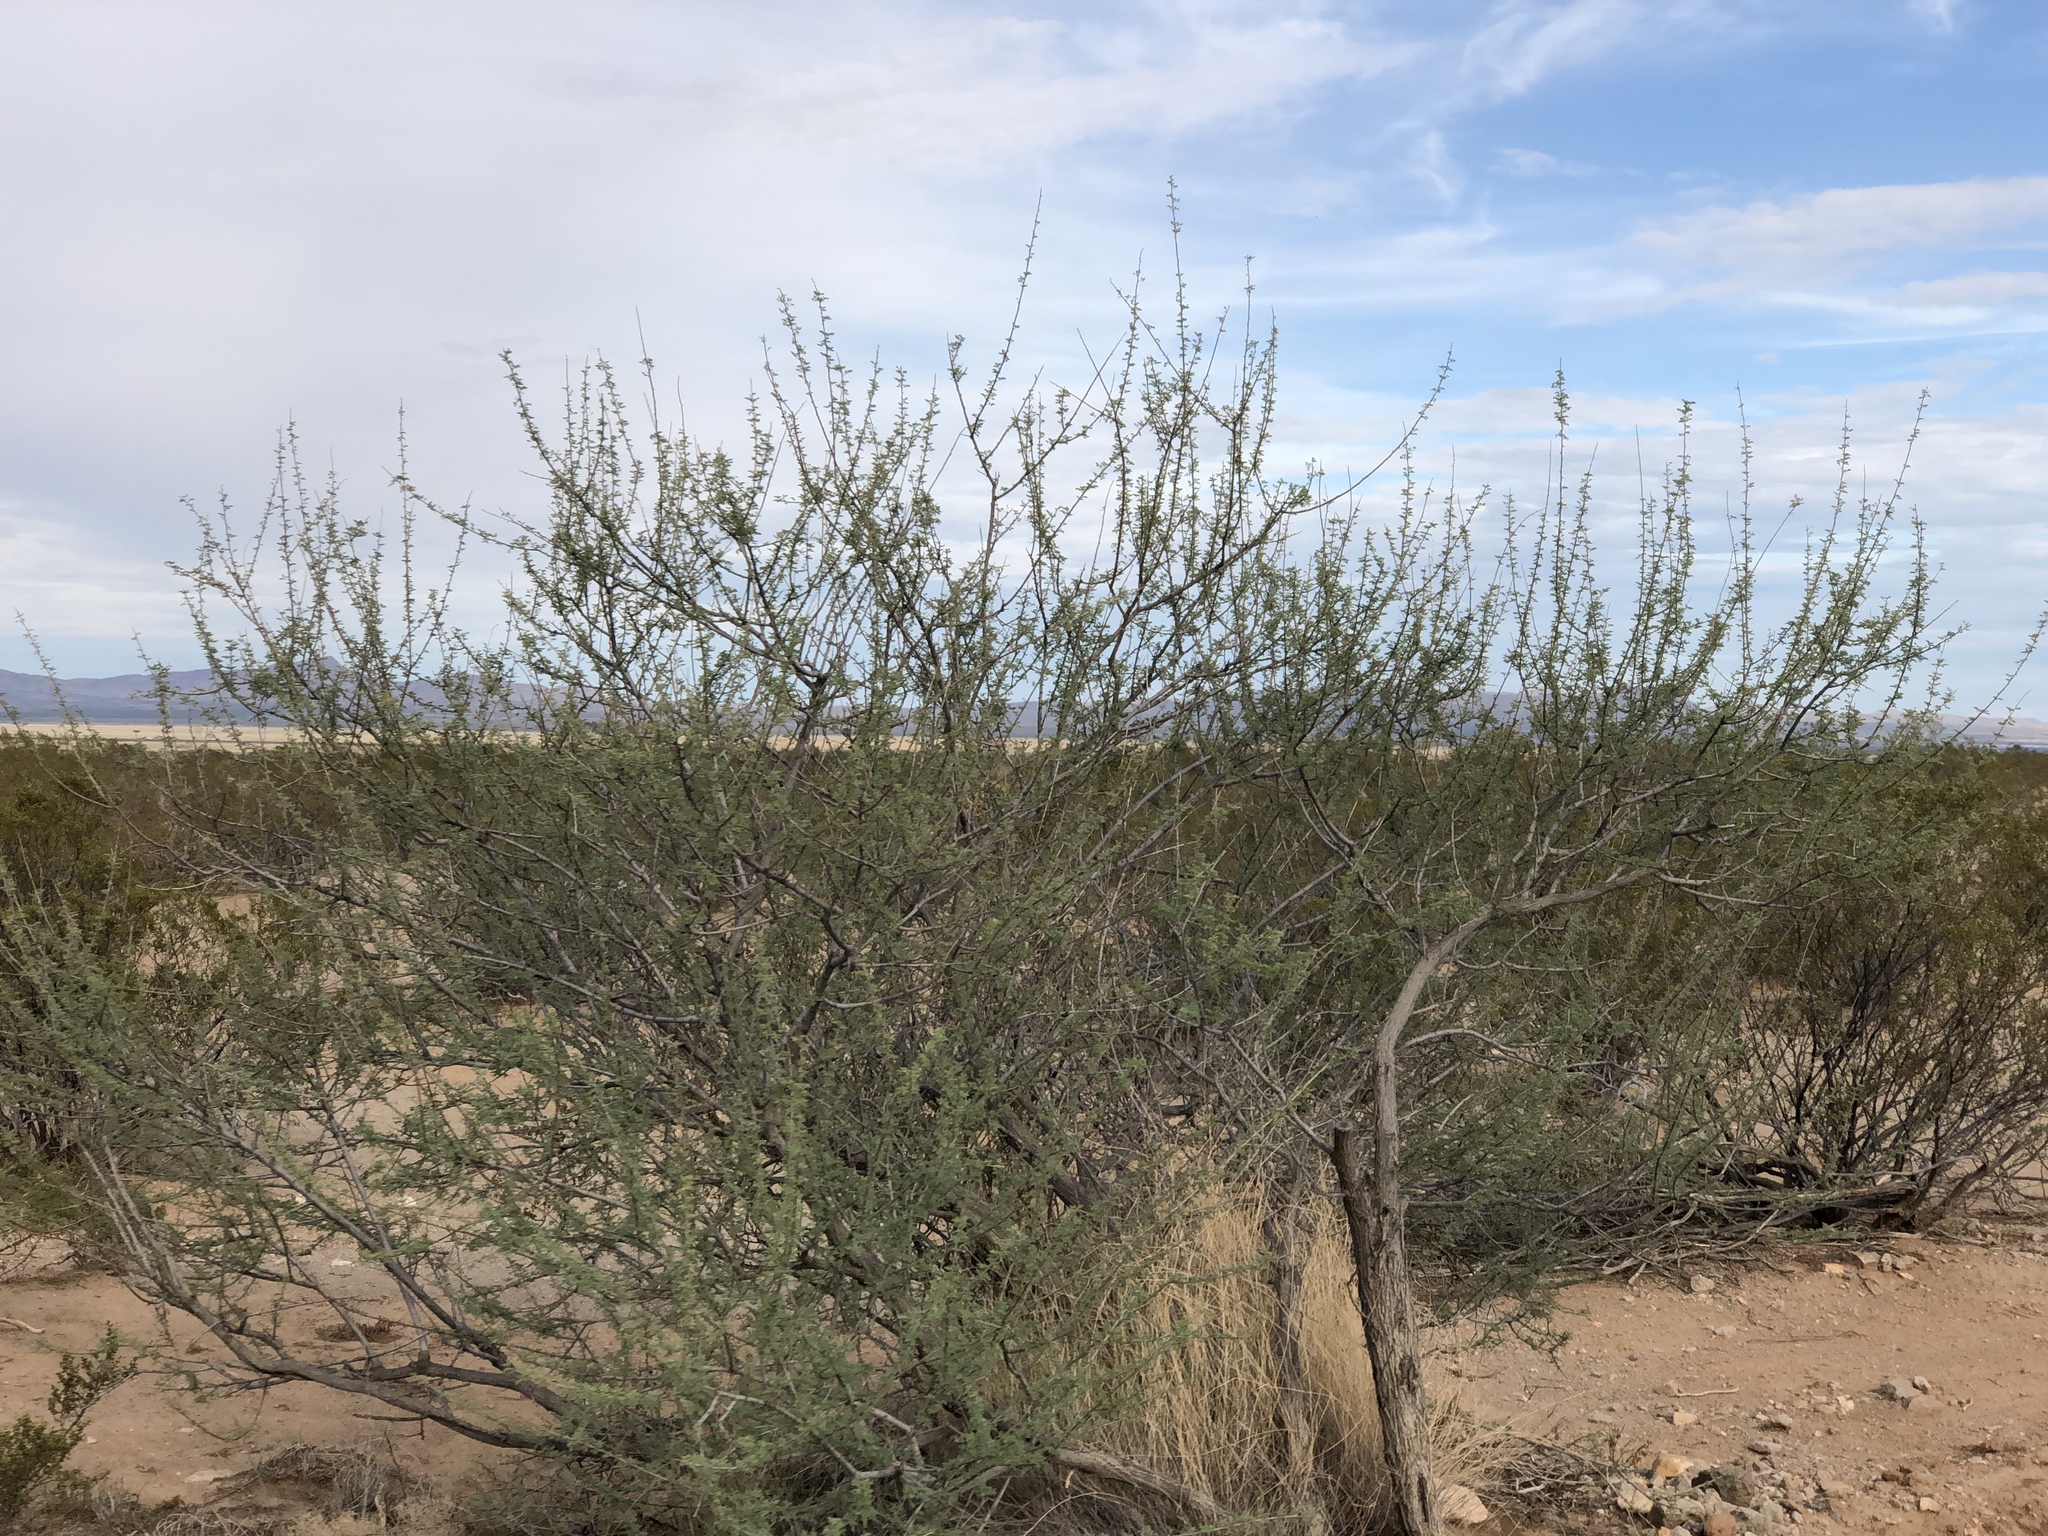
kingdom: Plantae
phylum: Tracheophyta
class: Magnoliopsida
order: Fabales
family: Fabaceae
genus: Senegalia
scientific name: Senegalia greggii
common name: Texas-mimosa
